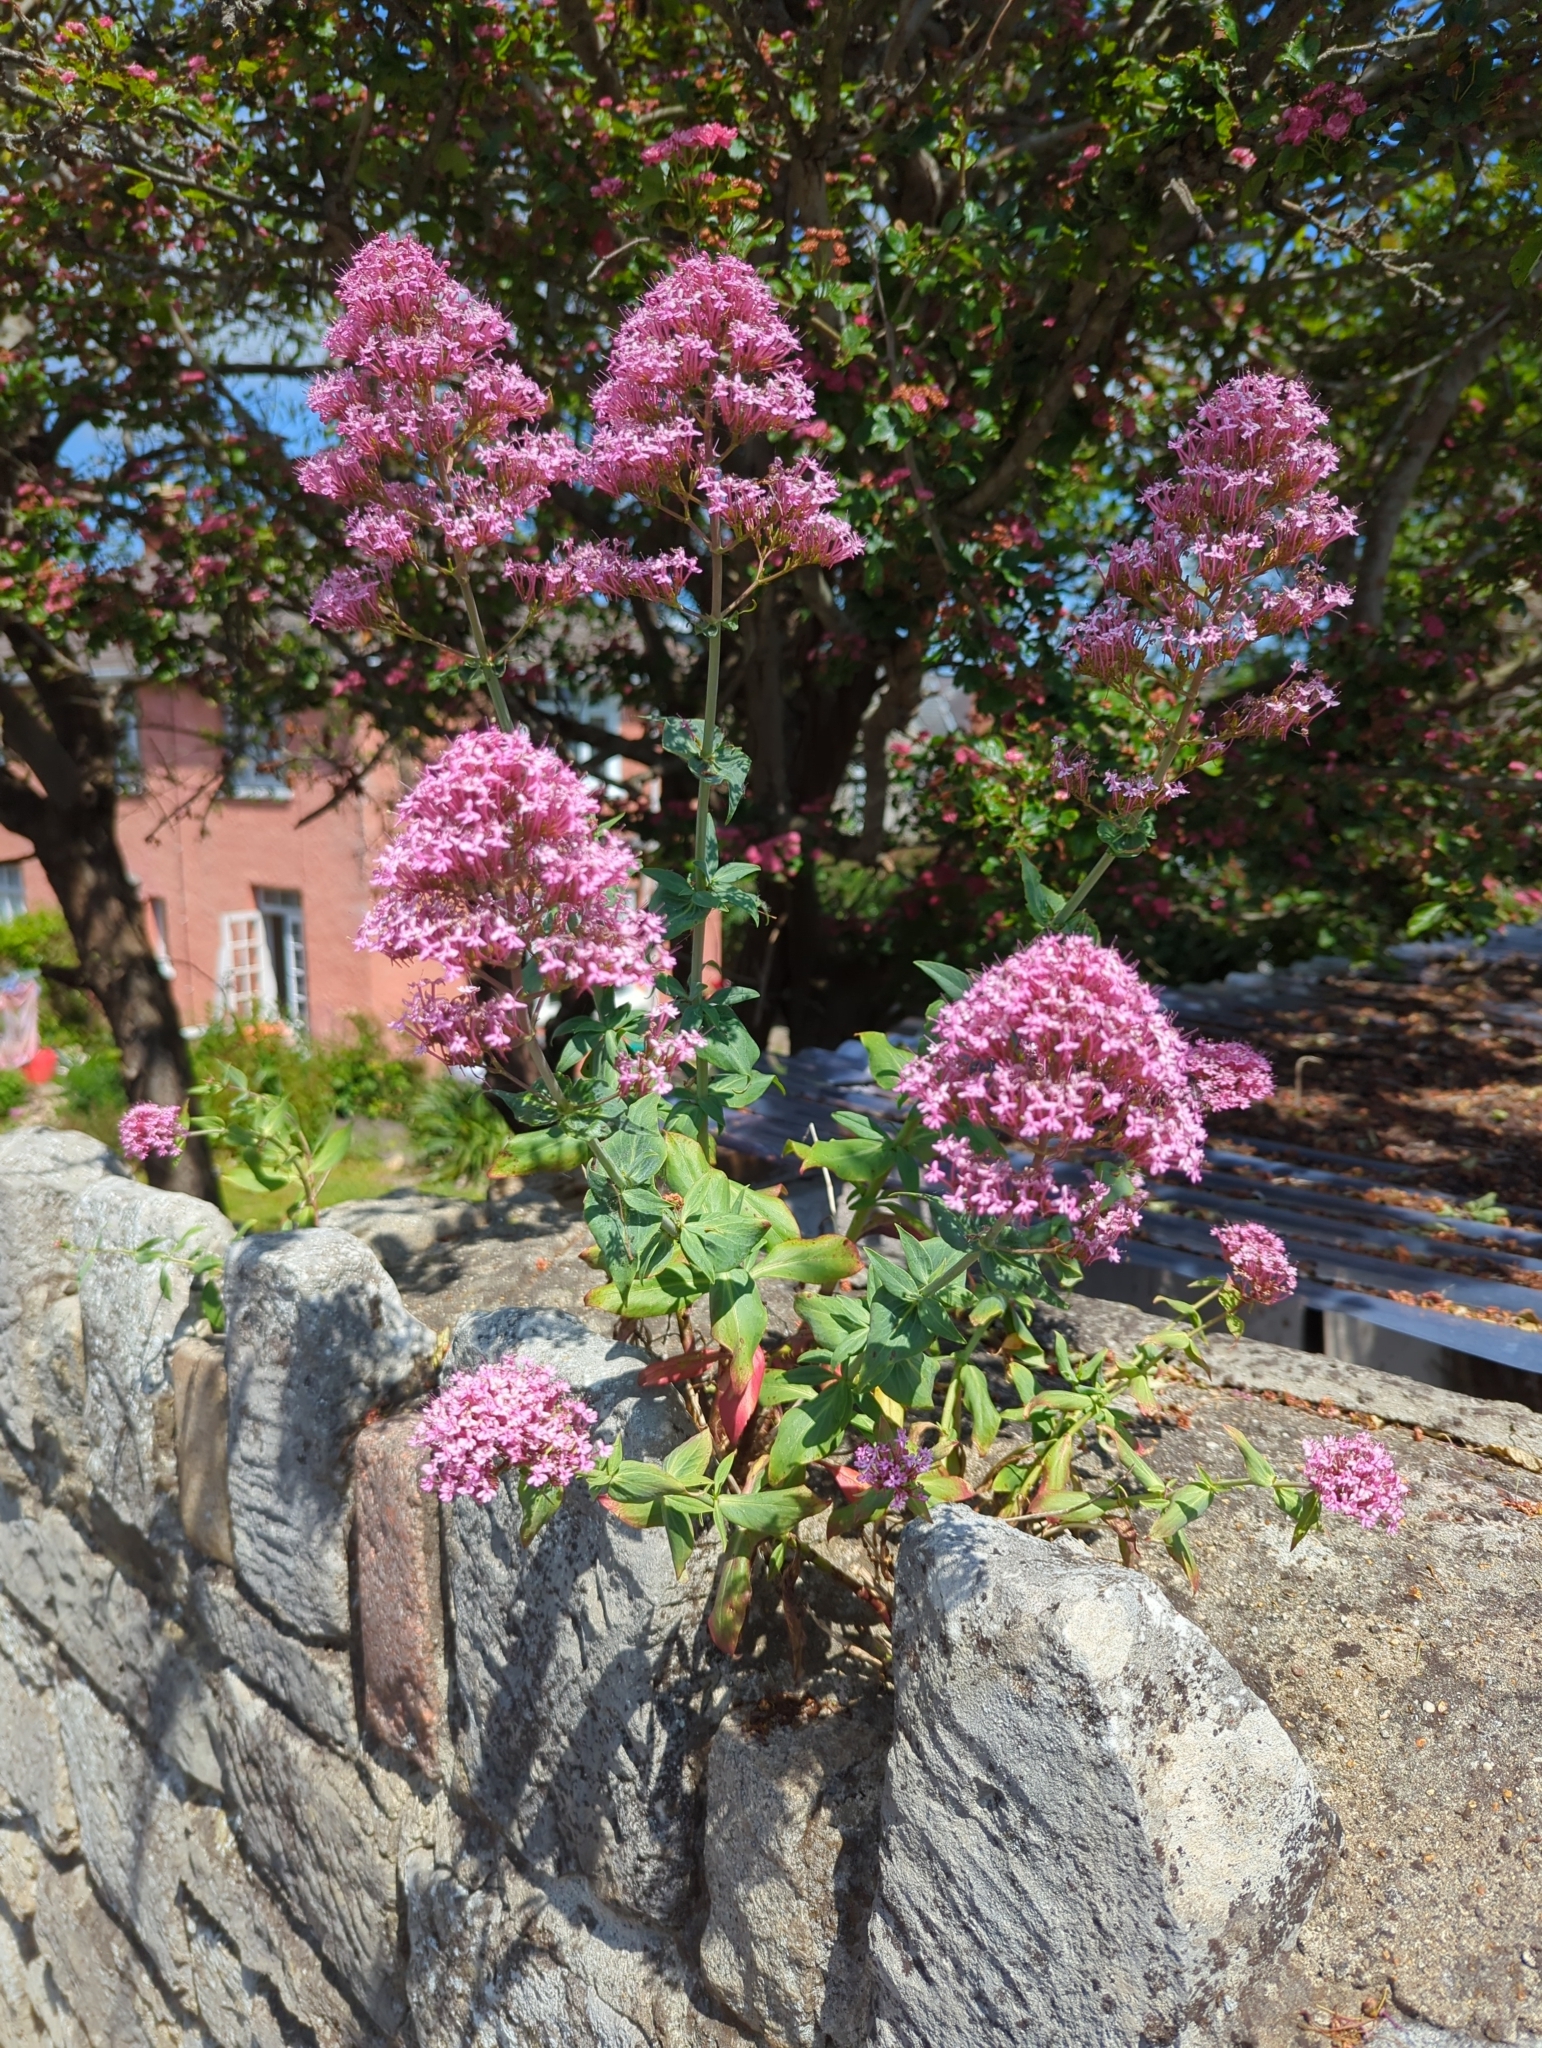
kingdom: Plantae
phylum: Tracheophyta
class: Magnoliopsida
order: Dipsacales
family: Caprifoliaceae
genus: Centranthus
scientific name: Centranthus ruber
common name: Red valerian
